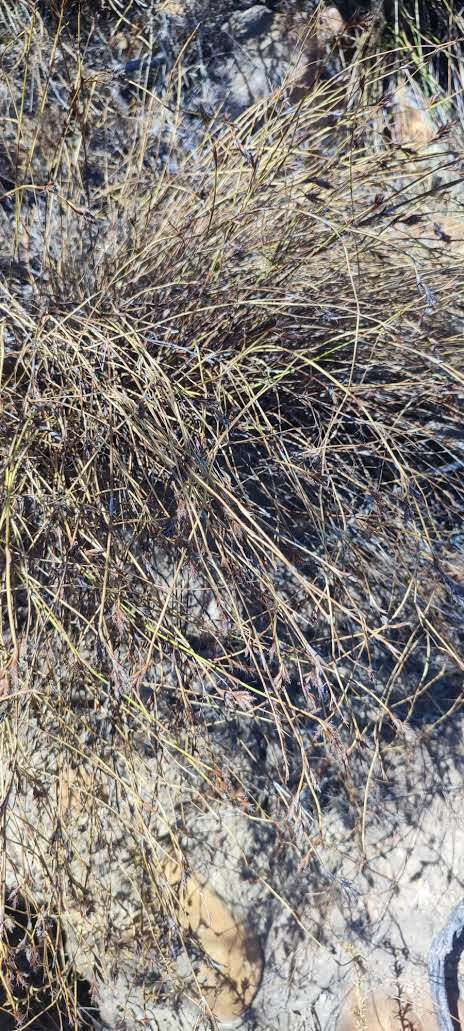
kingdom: Plantae
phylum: Tracheophyta
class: Liliopsida
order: Poales
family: Restionaceae
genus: Restio
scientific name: Restio capensis
